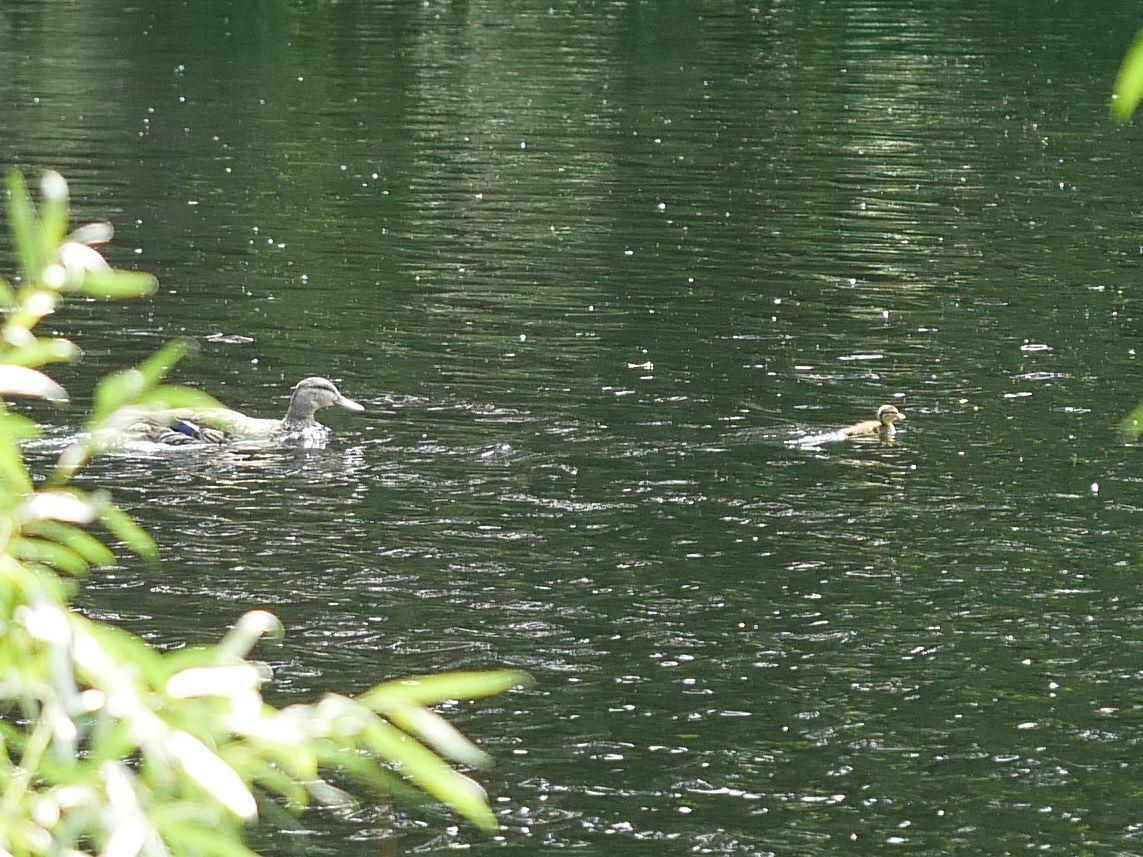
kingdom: Animalia
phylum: Chordata
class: Aves
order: Anseriformes
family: Anatidae
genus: Anas
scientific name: Anas platyrhynchos
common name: Mallard
